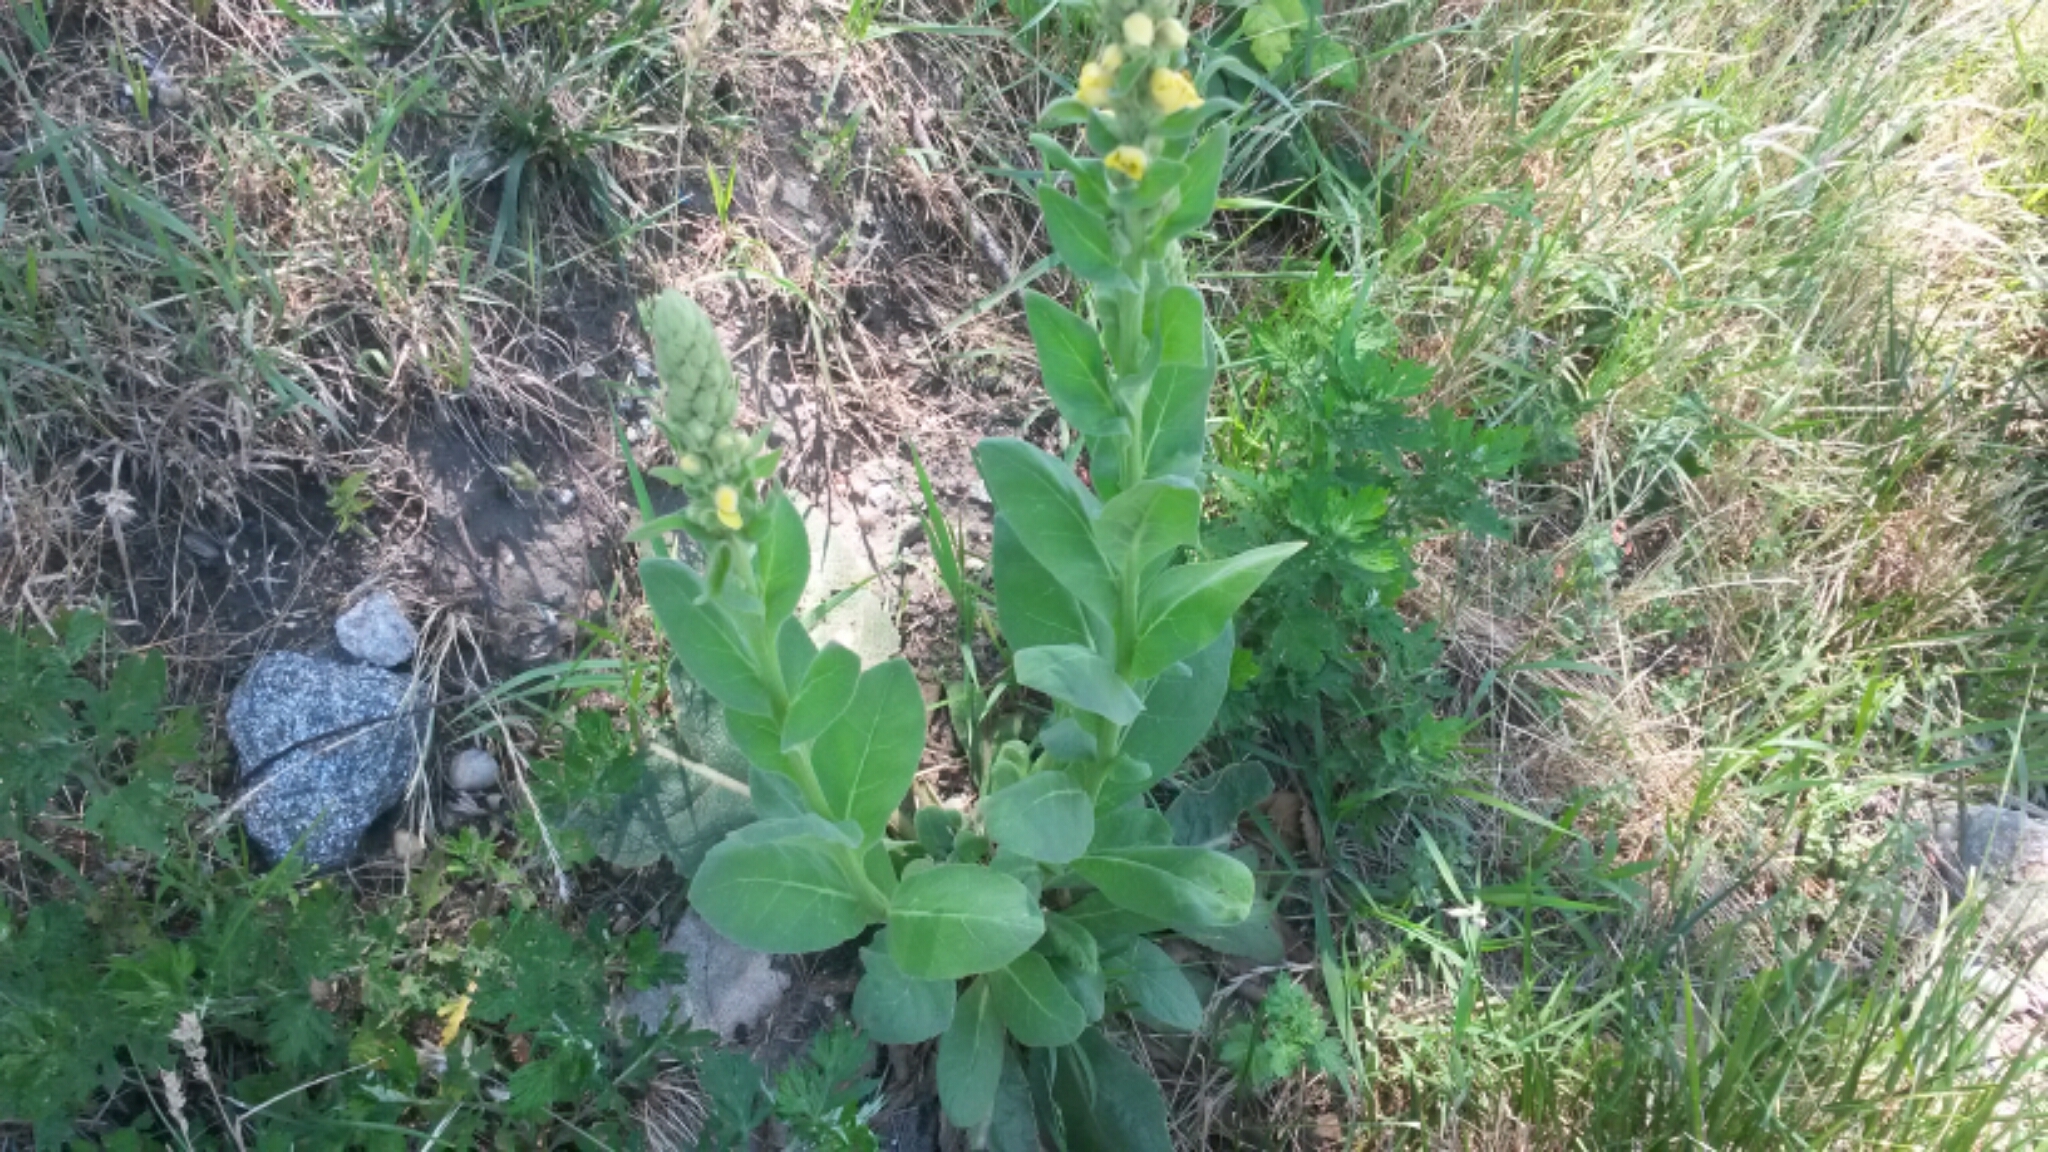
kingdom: Plantae
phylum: Tracheophyta
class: Magnoliopsida
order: Lamiales
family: Scrophulariaceae
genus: Verbascum
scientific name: Verbascum thapsus
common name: Common mullein
